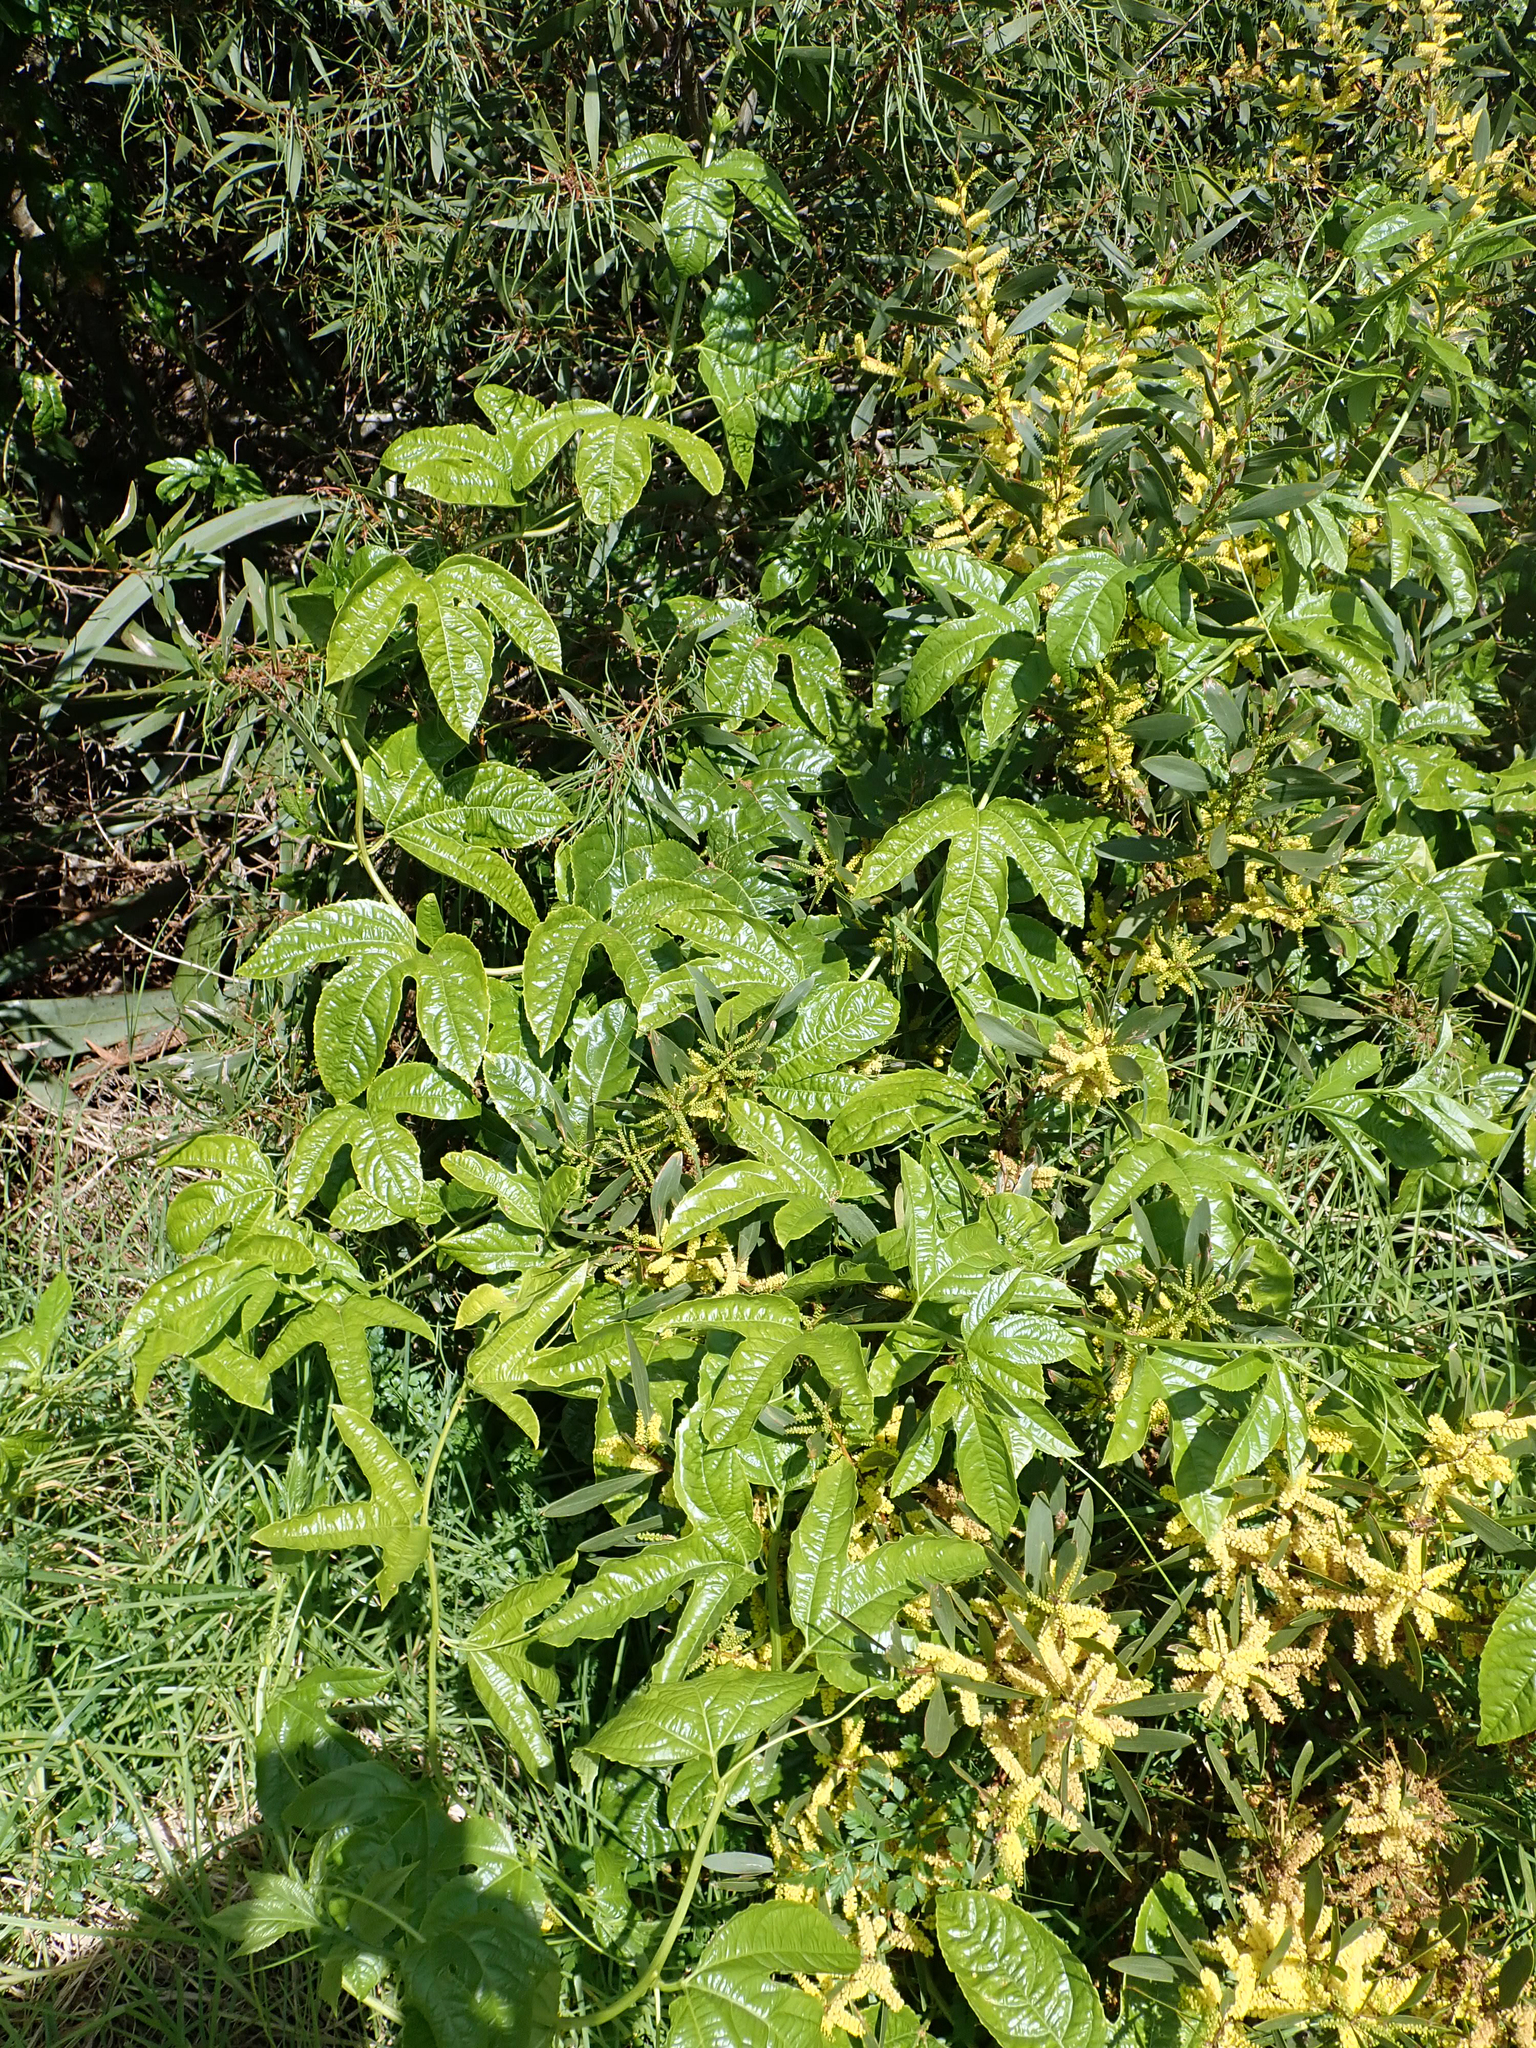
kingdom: Plantae
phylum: Tracheophyta
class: Magnoliopsida
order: Malpighiales
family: Passifloraceae
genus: Passiflora
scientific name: Passiflora edulis
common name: Purple granadilla
